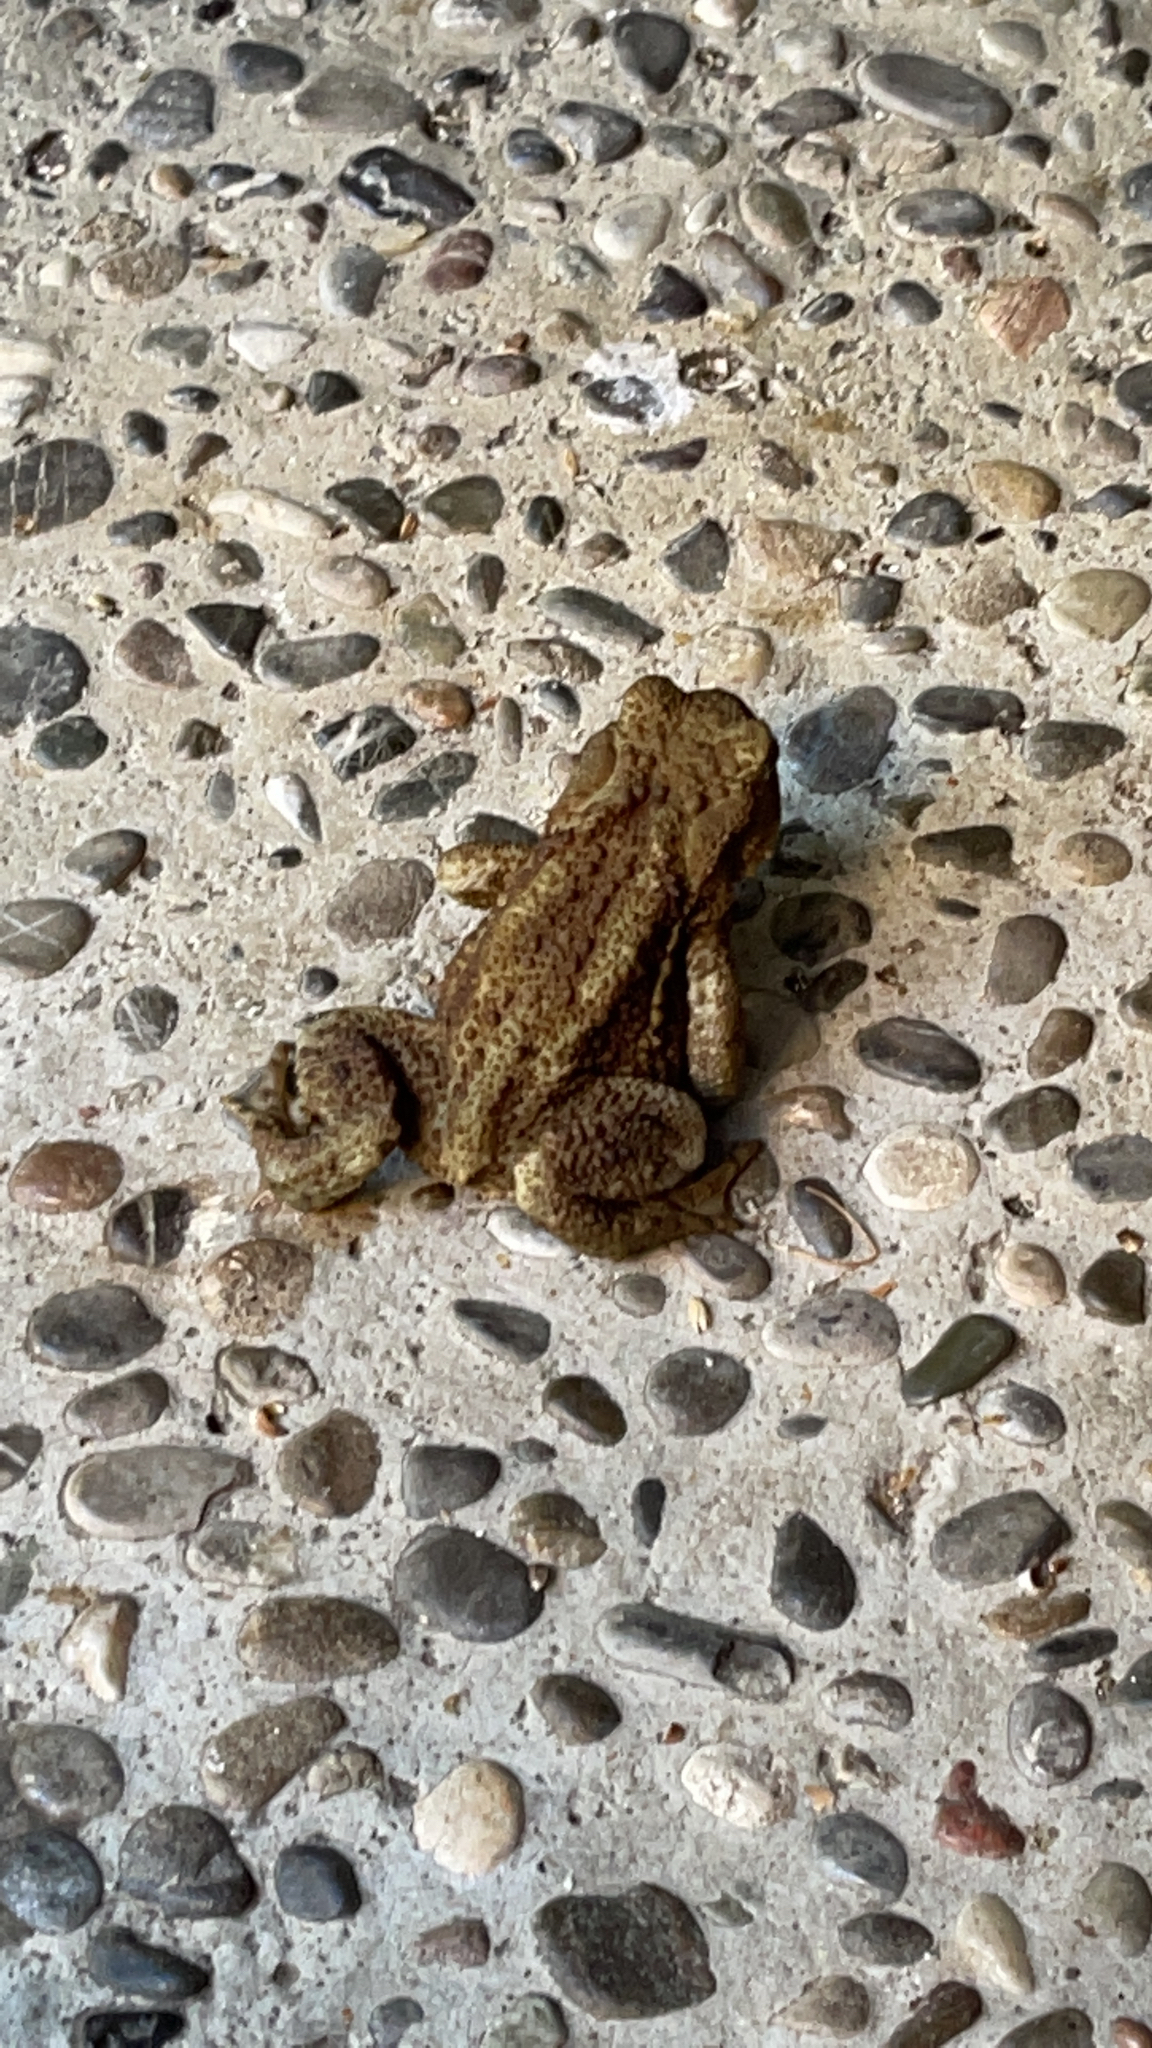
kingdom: Animalia
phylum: Chordata
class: Amphibia
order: Anura
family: Bufonidae
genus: Bufo
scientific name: Bufo bufo
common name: Common toad
